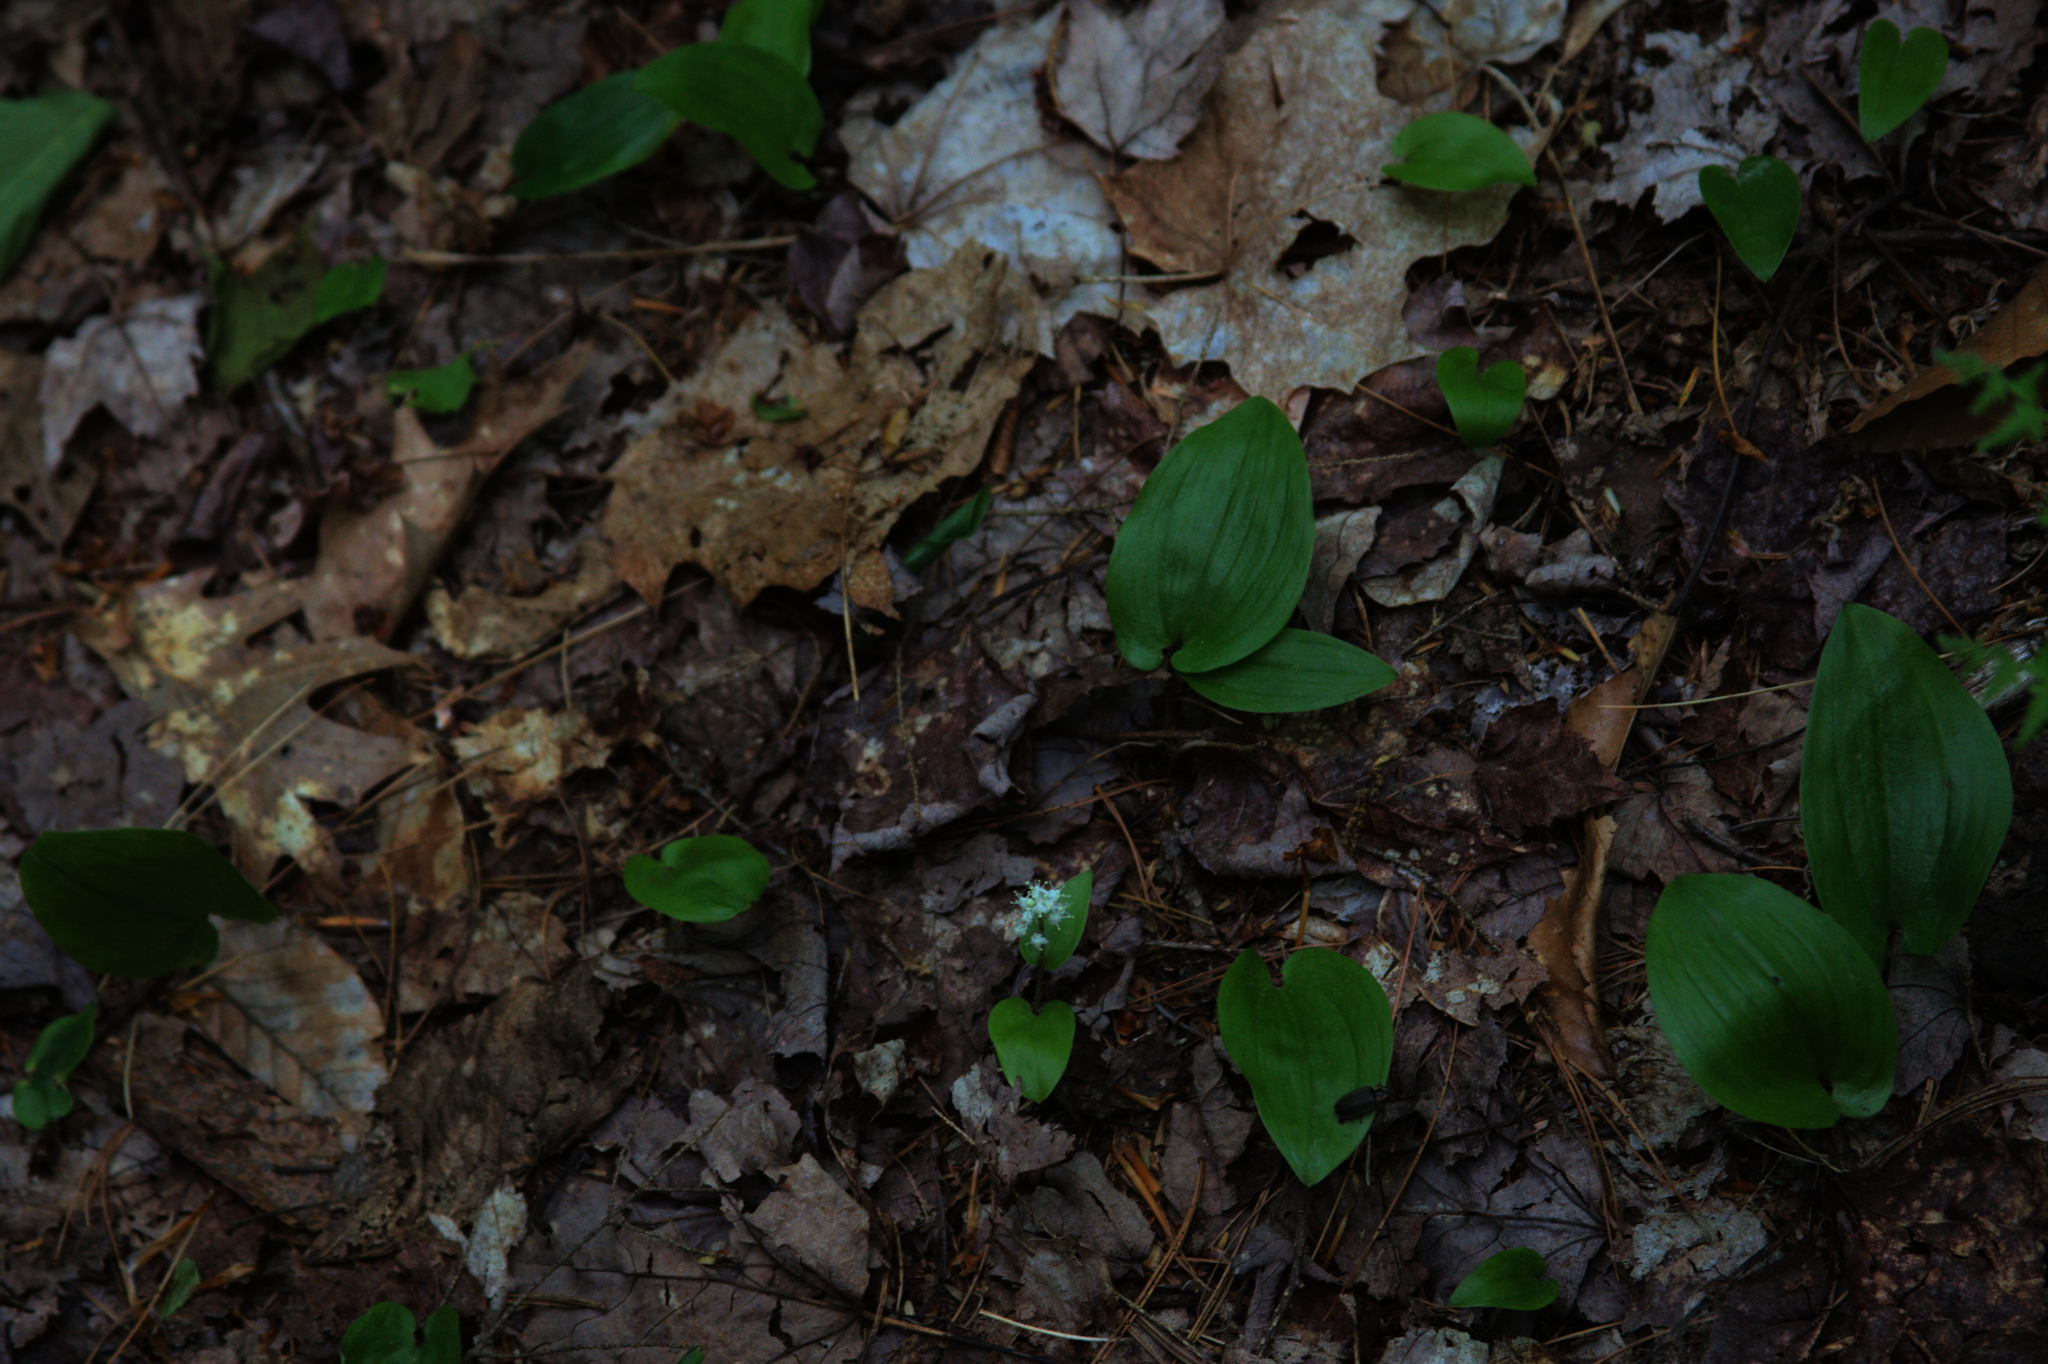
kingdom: Plantae
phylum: Tracheophyta
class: Liliopsida
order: Asparagales
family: Asparagaceae
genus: Maianthemum
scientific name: Maianthemum canadense
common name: False lily-of-the-valley
